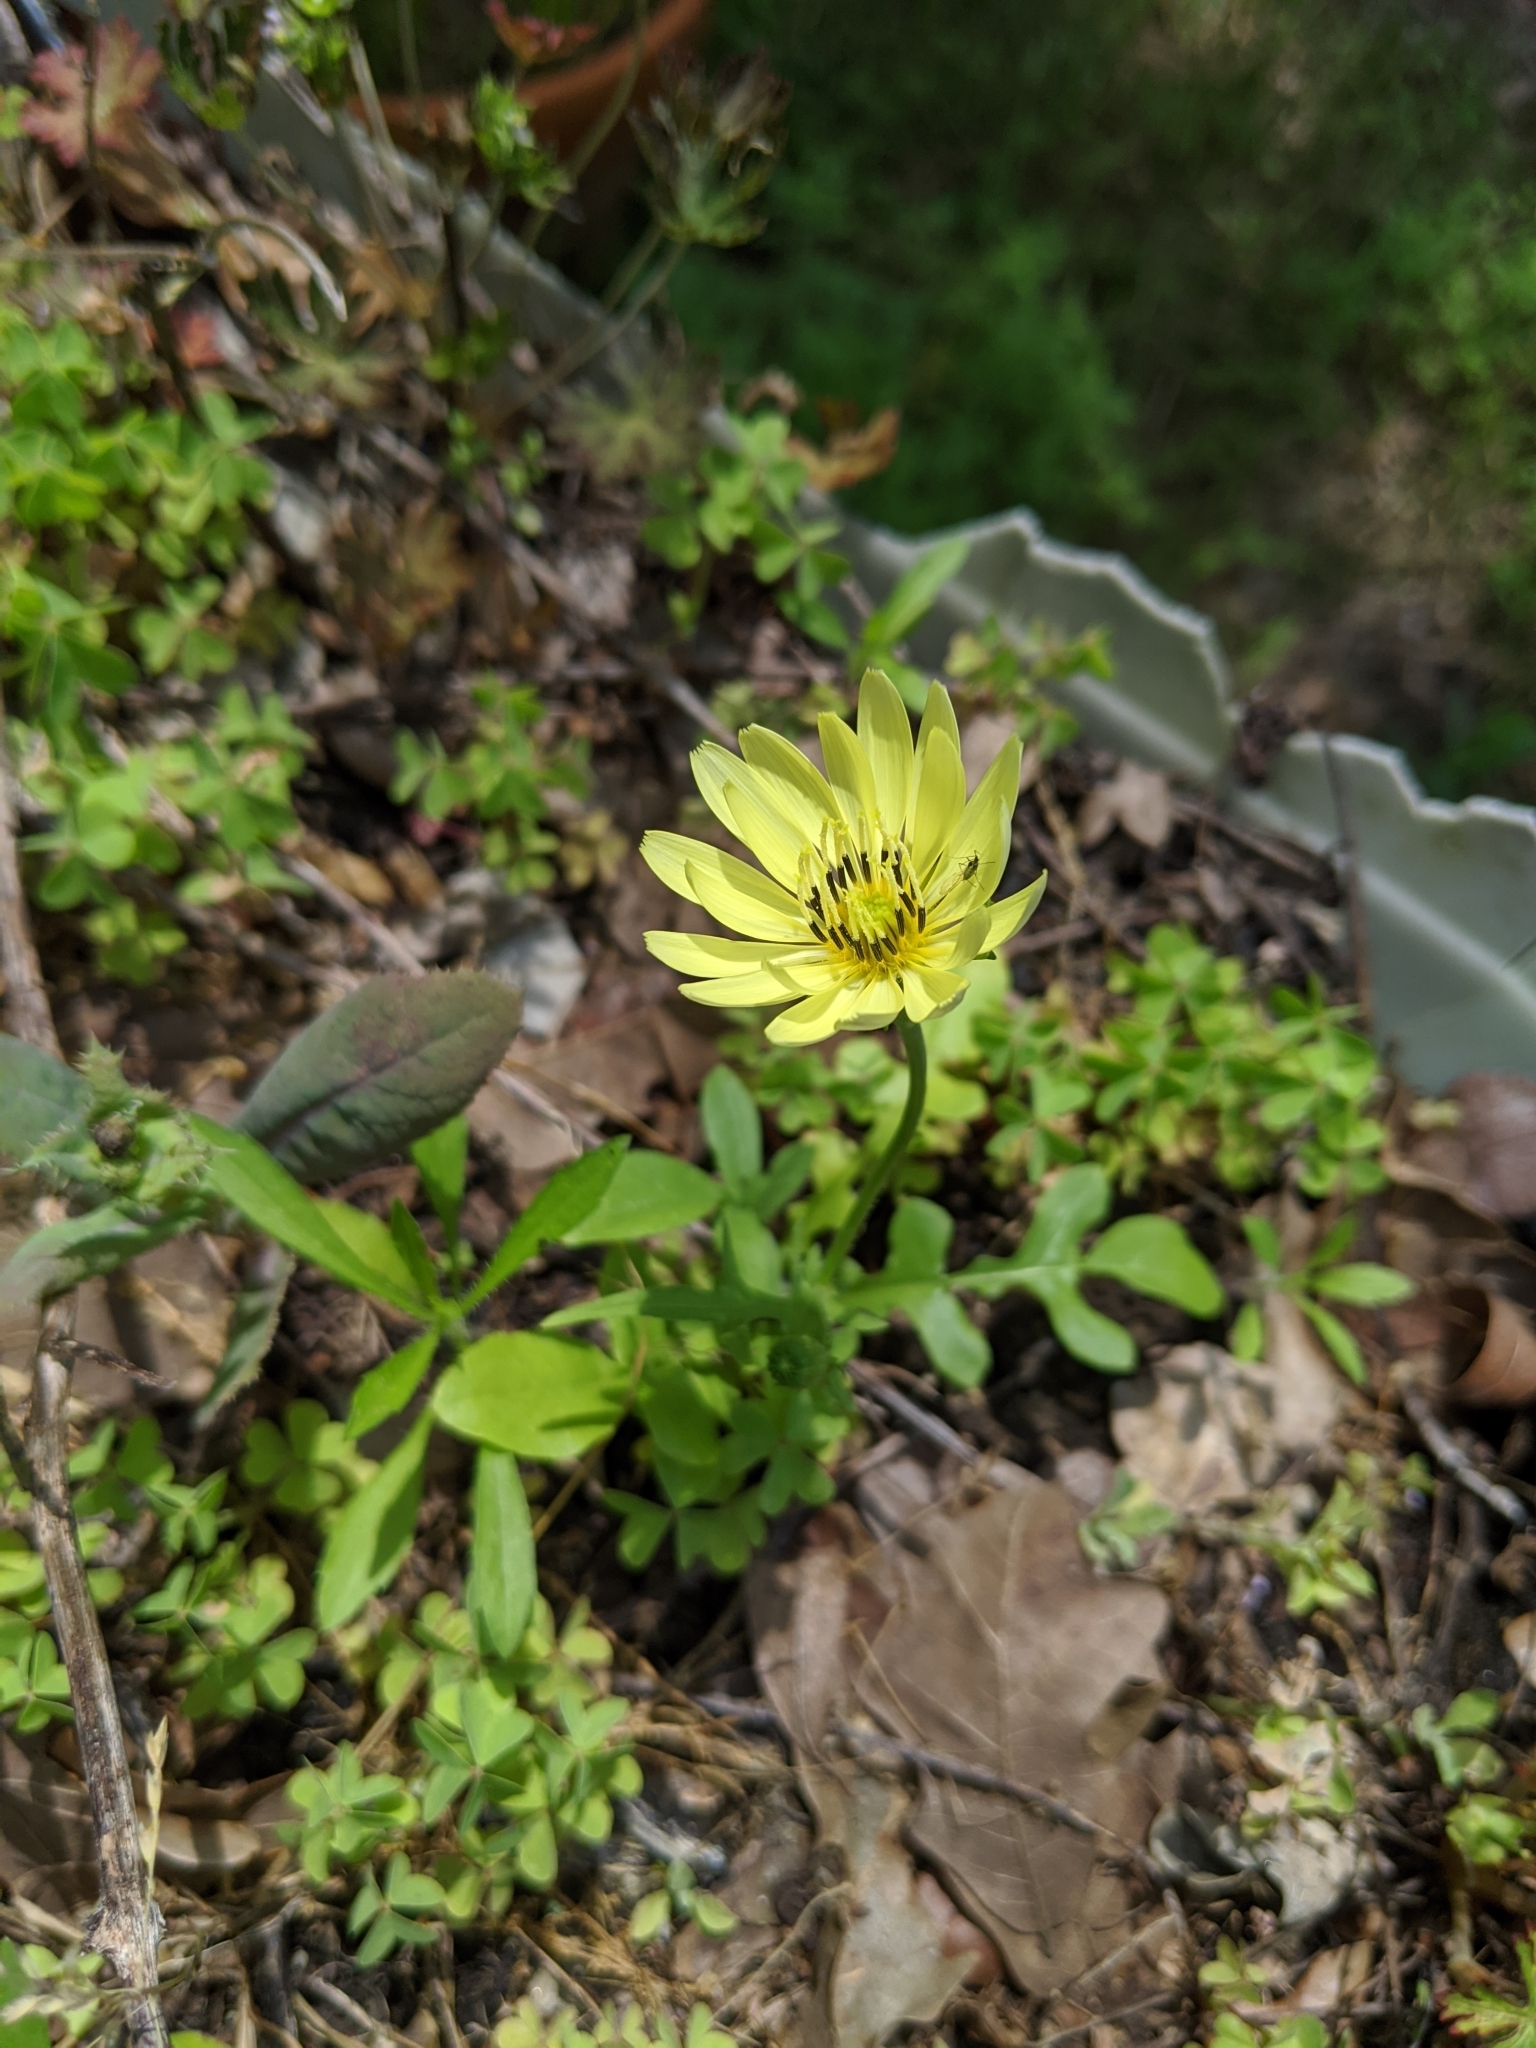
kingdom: Plantae
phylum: Tracheophyta
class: Magnoliopsida
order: Asterales
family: Asteraceae
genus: Pyrrhopappus
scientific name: Pyrrhopappus pauciflorus
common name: Texas false dandelion
